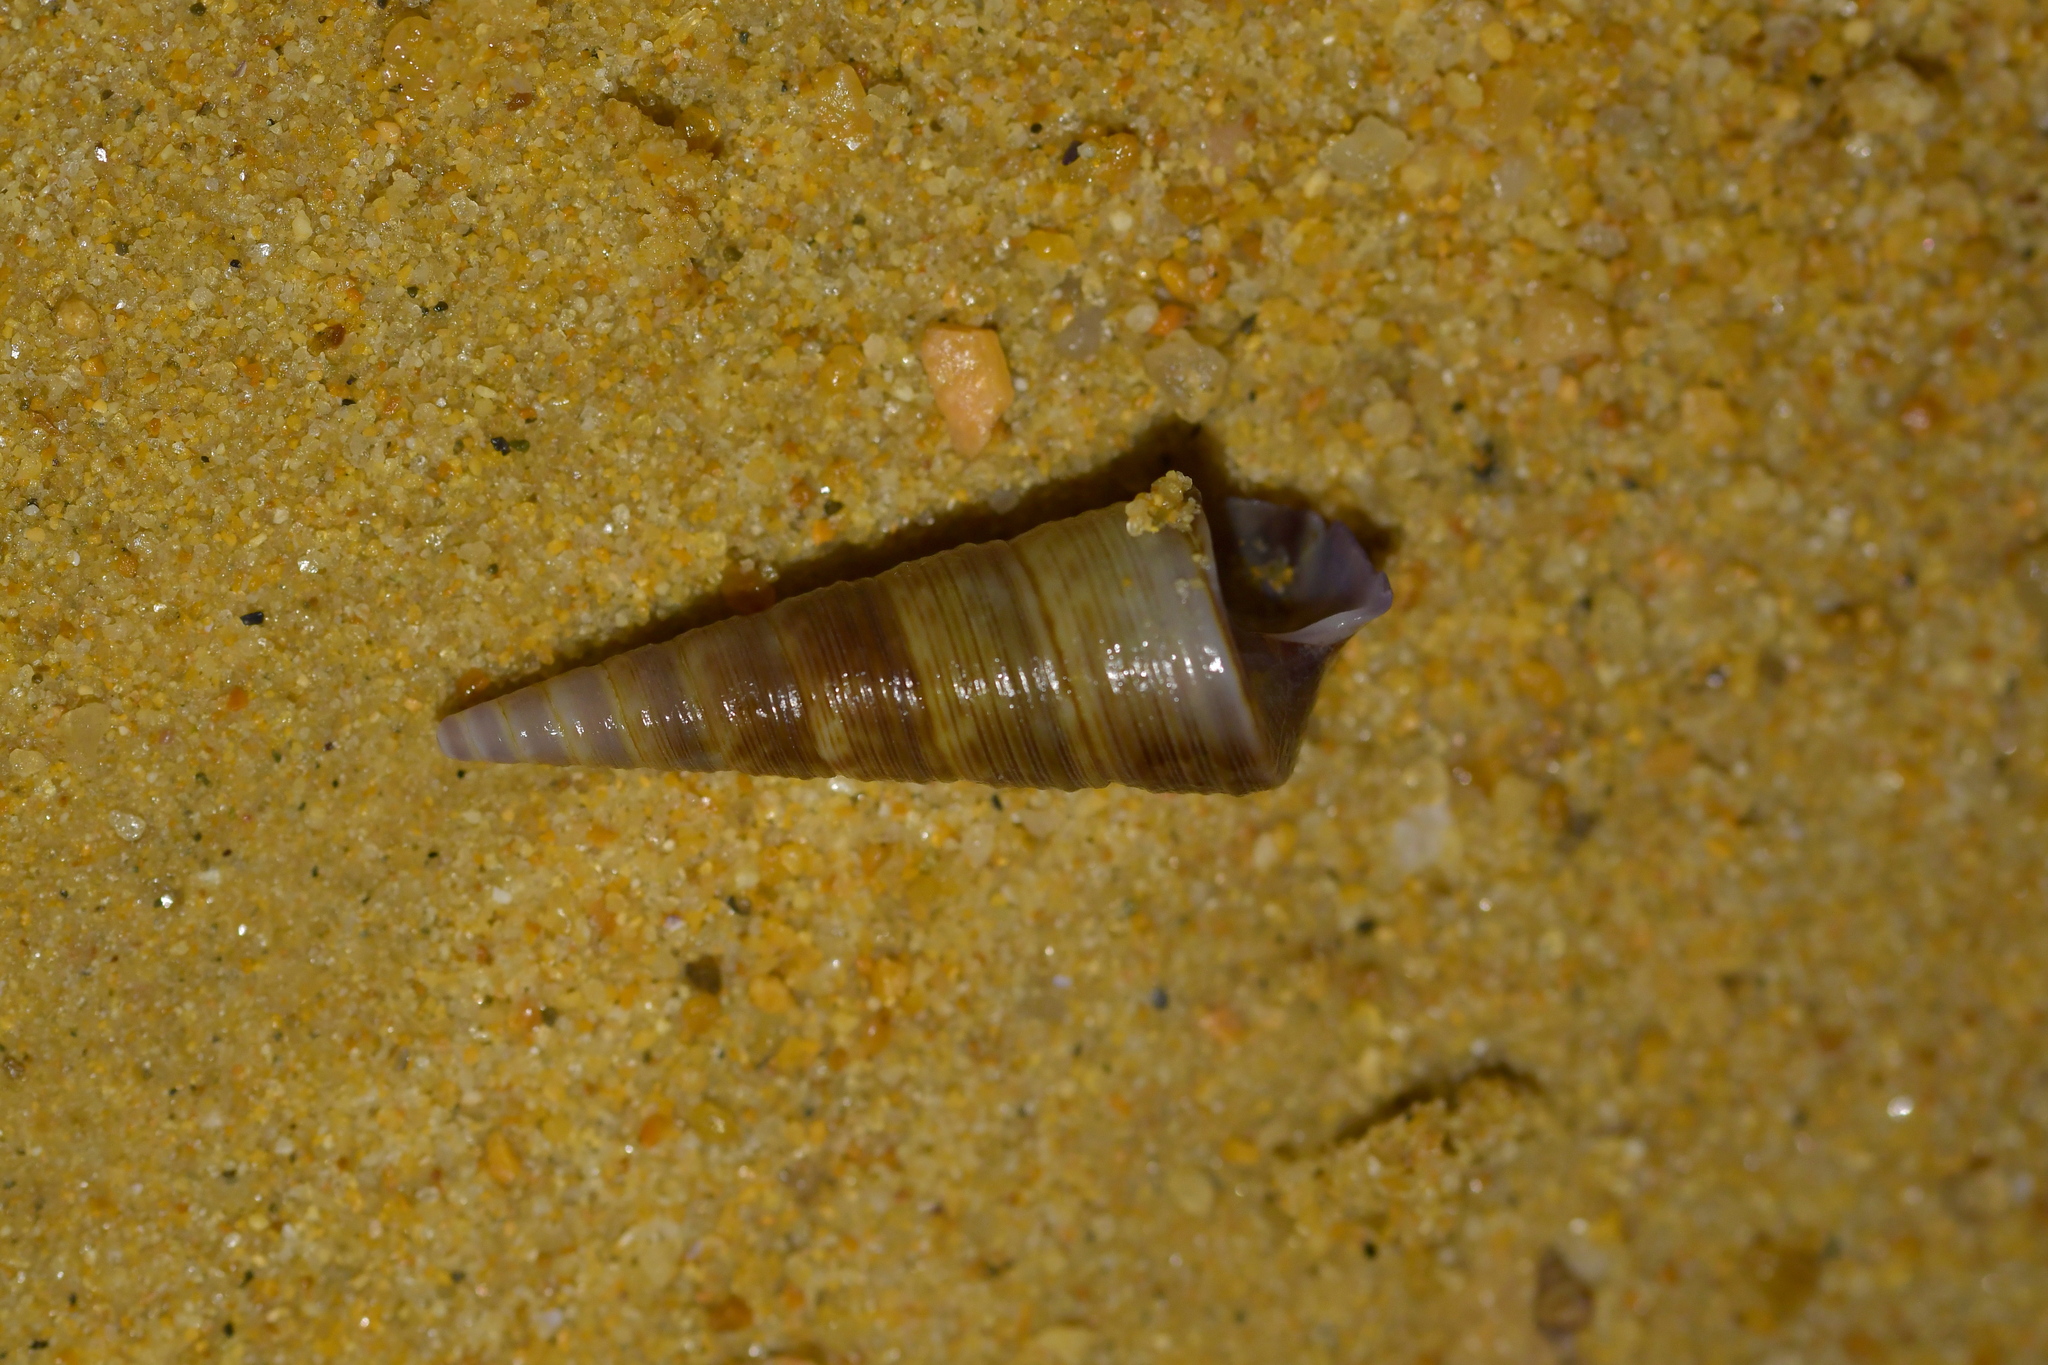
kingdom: Animalia
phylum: Mollusca
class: Gastropoda
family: Turritellidae
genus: Maoricolpus
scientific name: Maoricolpus roseus
